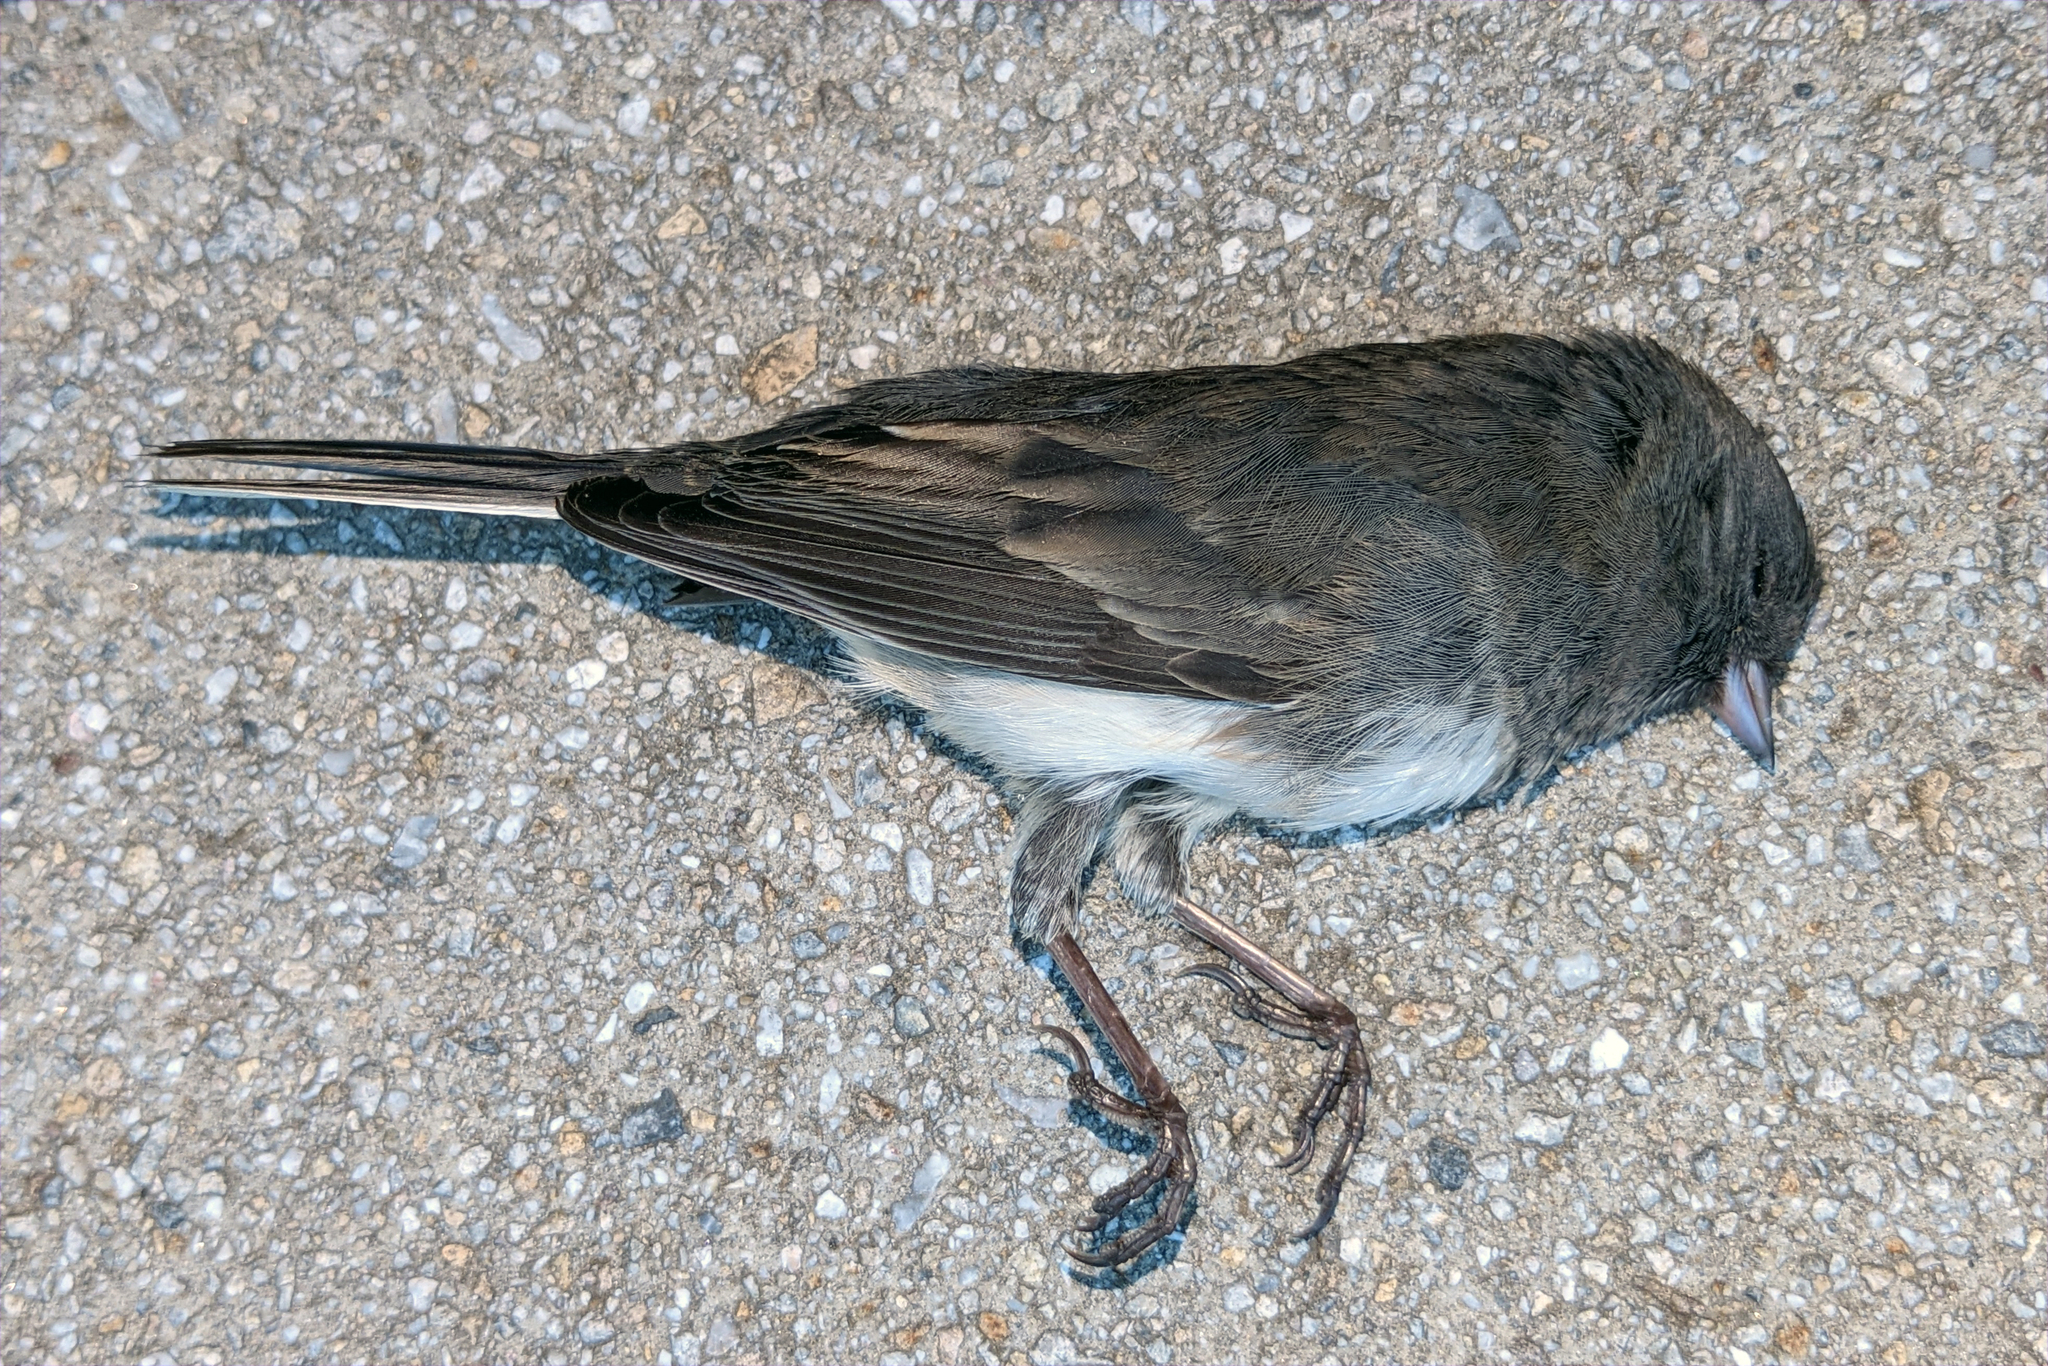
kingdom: Animalia
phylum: Chordata
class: Aves
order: Passeriformes
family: Passerellidae
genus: Junco
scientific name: Junco hyemalis
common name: Dark-eyed junco
